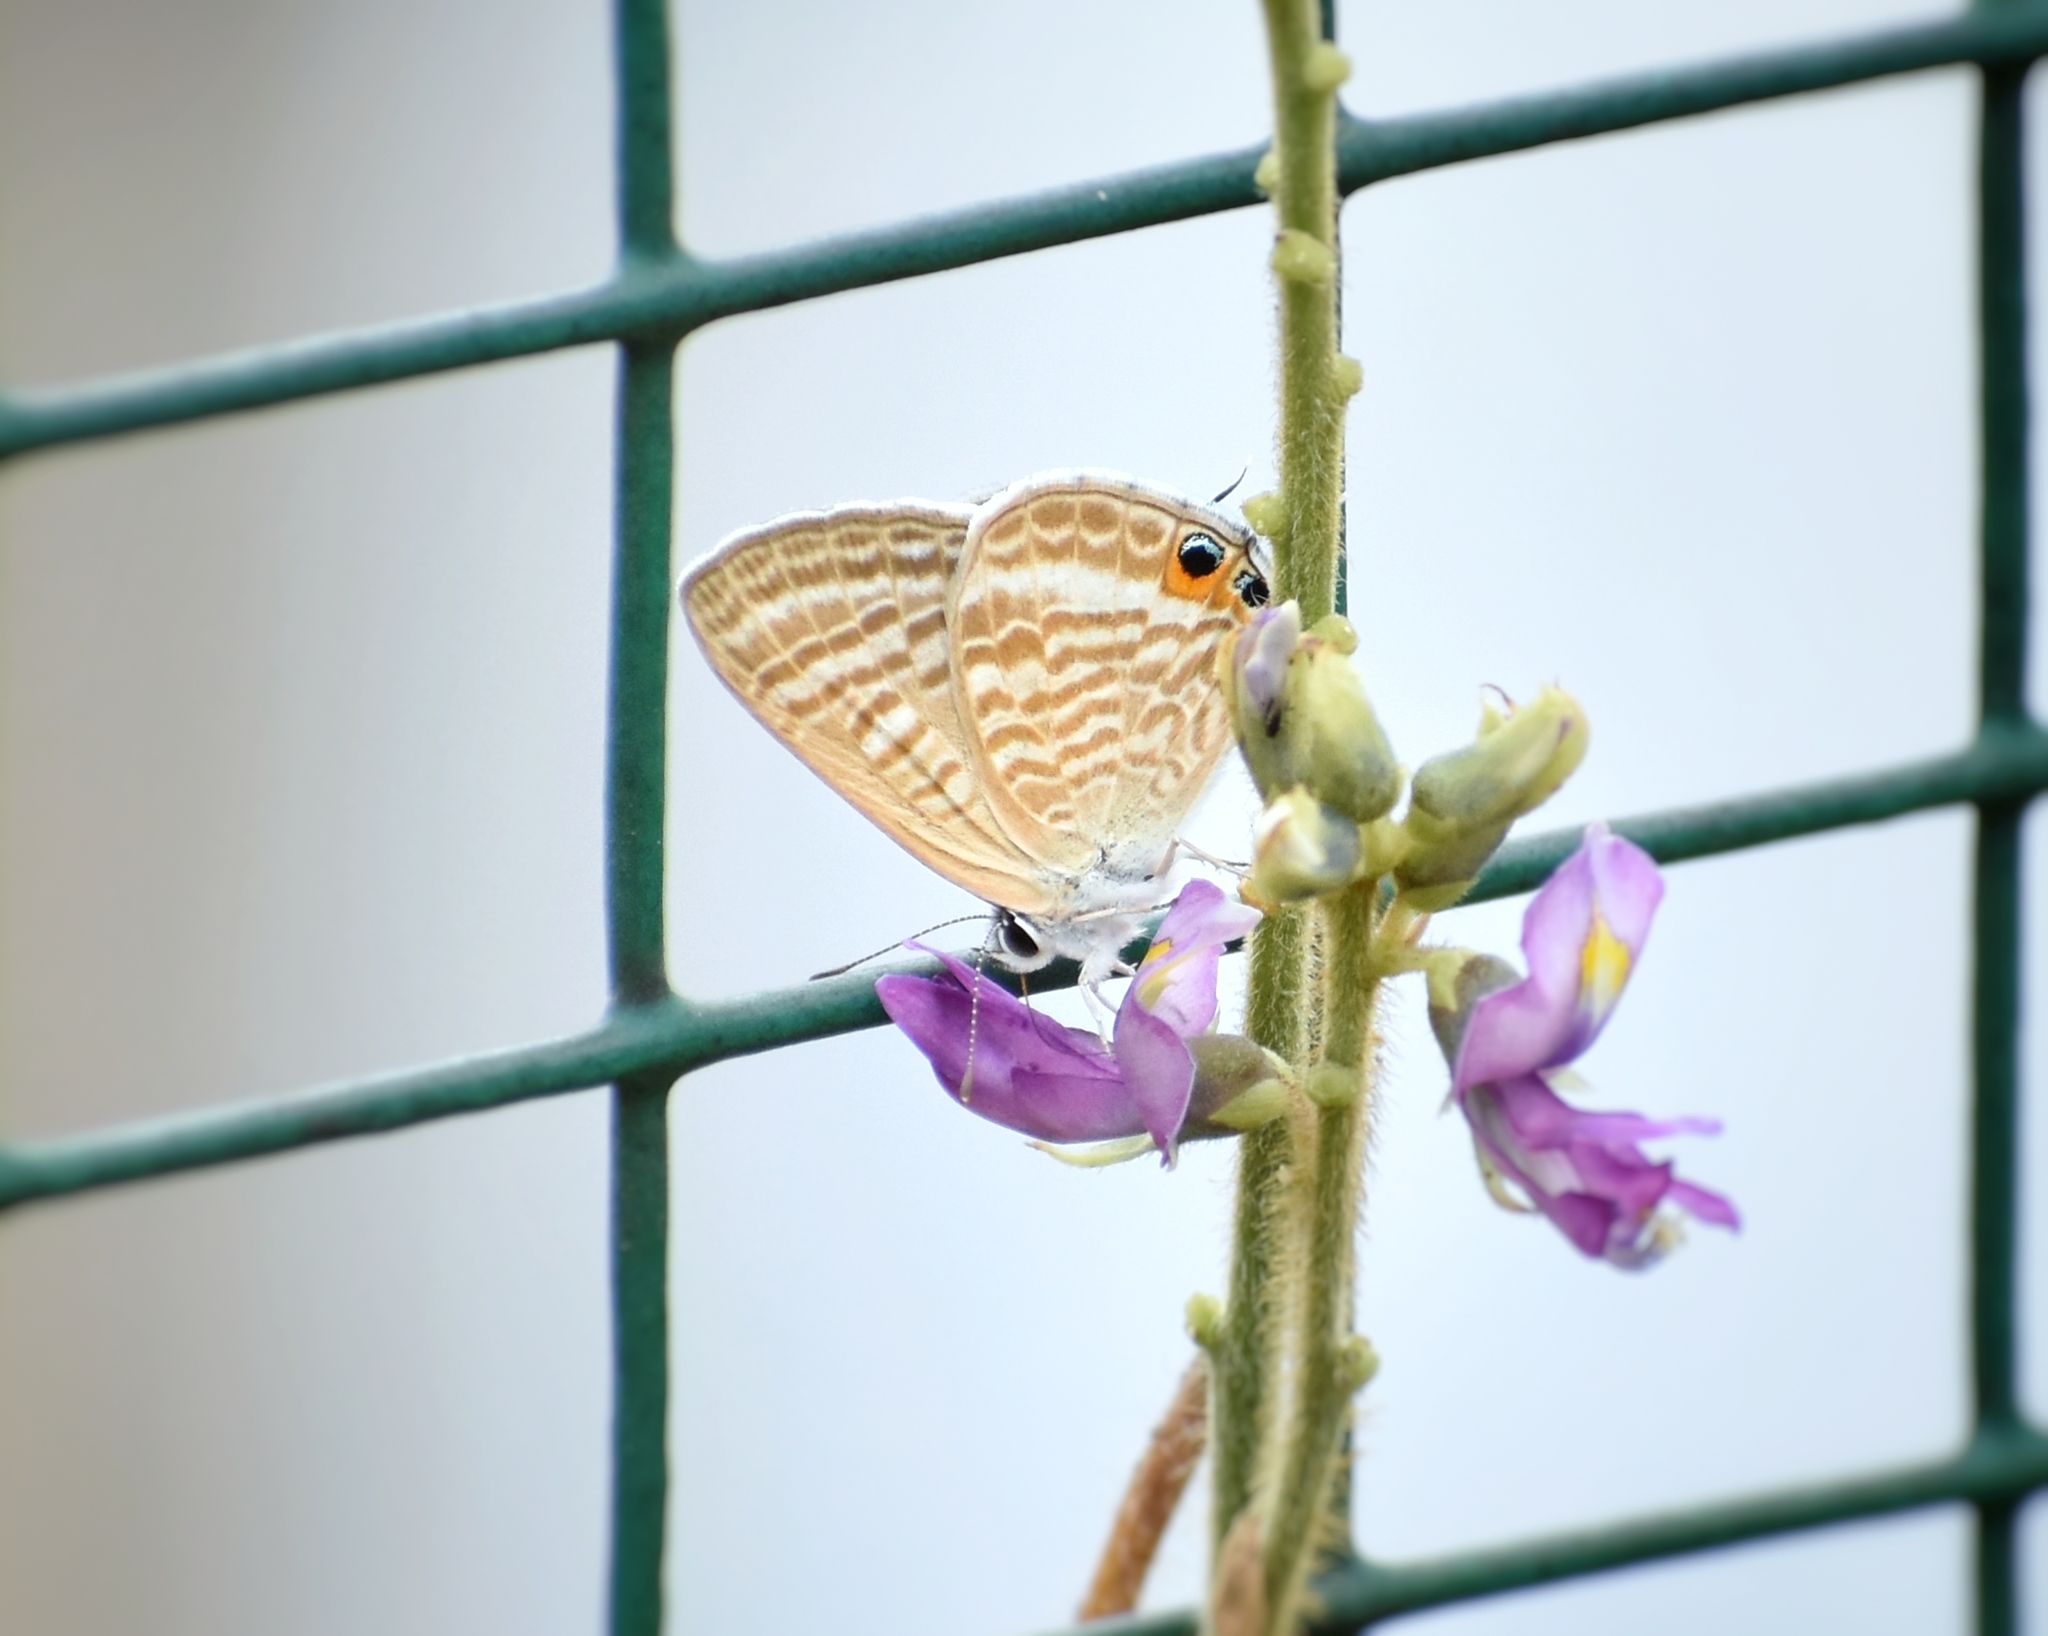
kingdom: Animalia
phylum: Arthropoda
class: Insecta
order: Lepidoptera
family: Lycaenidae
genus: Lampides
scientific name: Lampides boeticus
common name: Long-tailed blue
